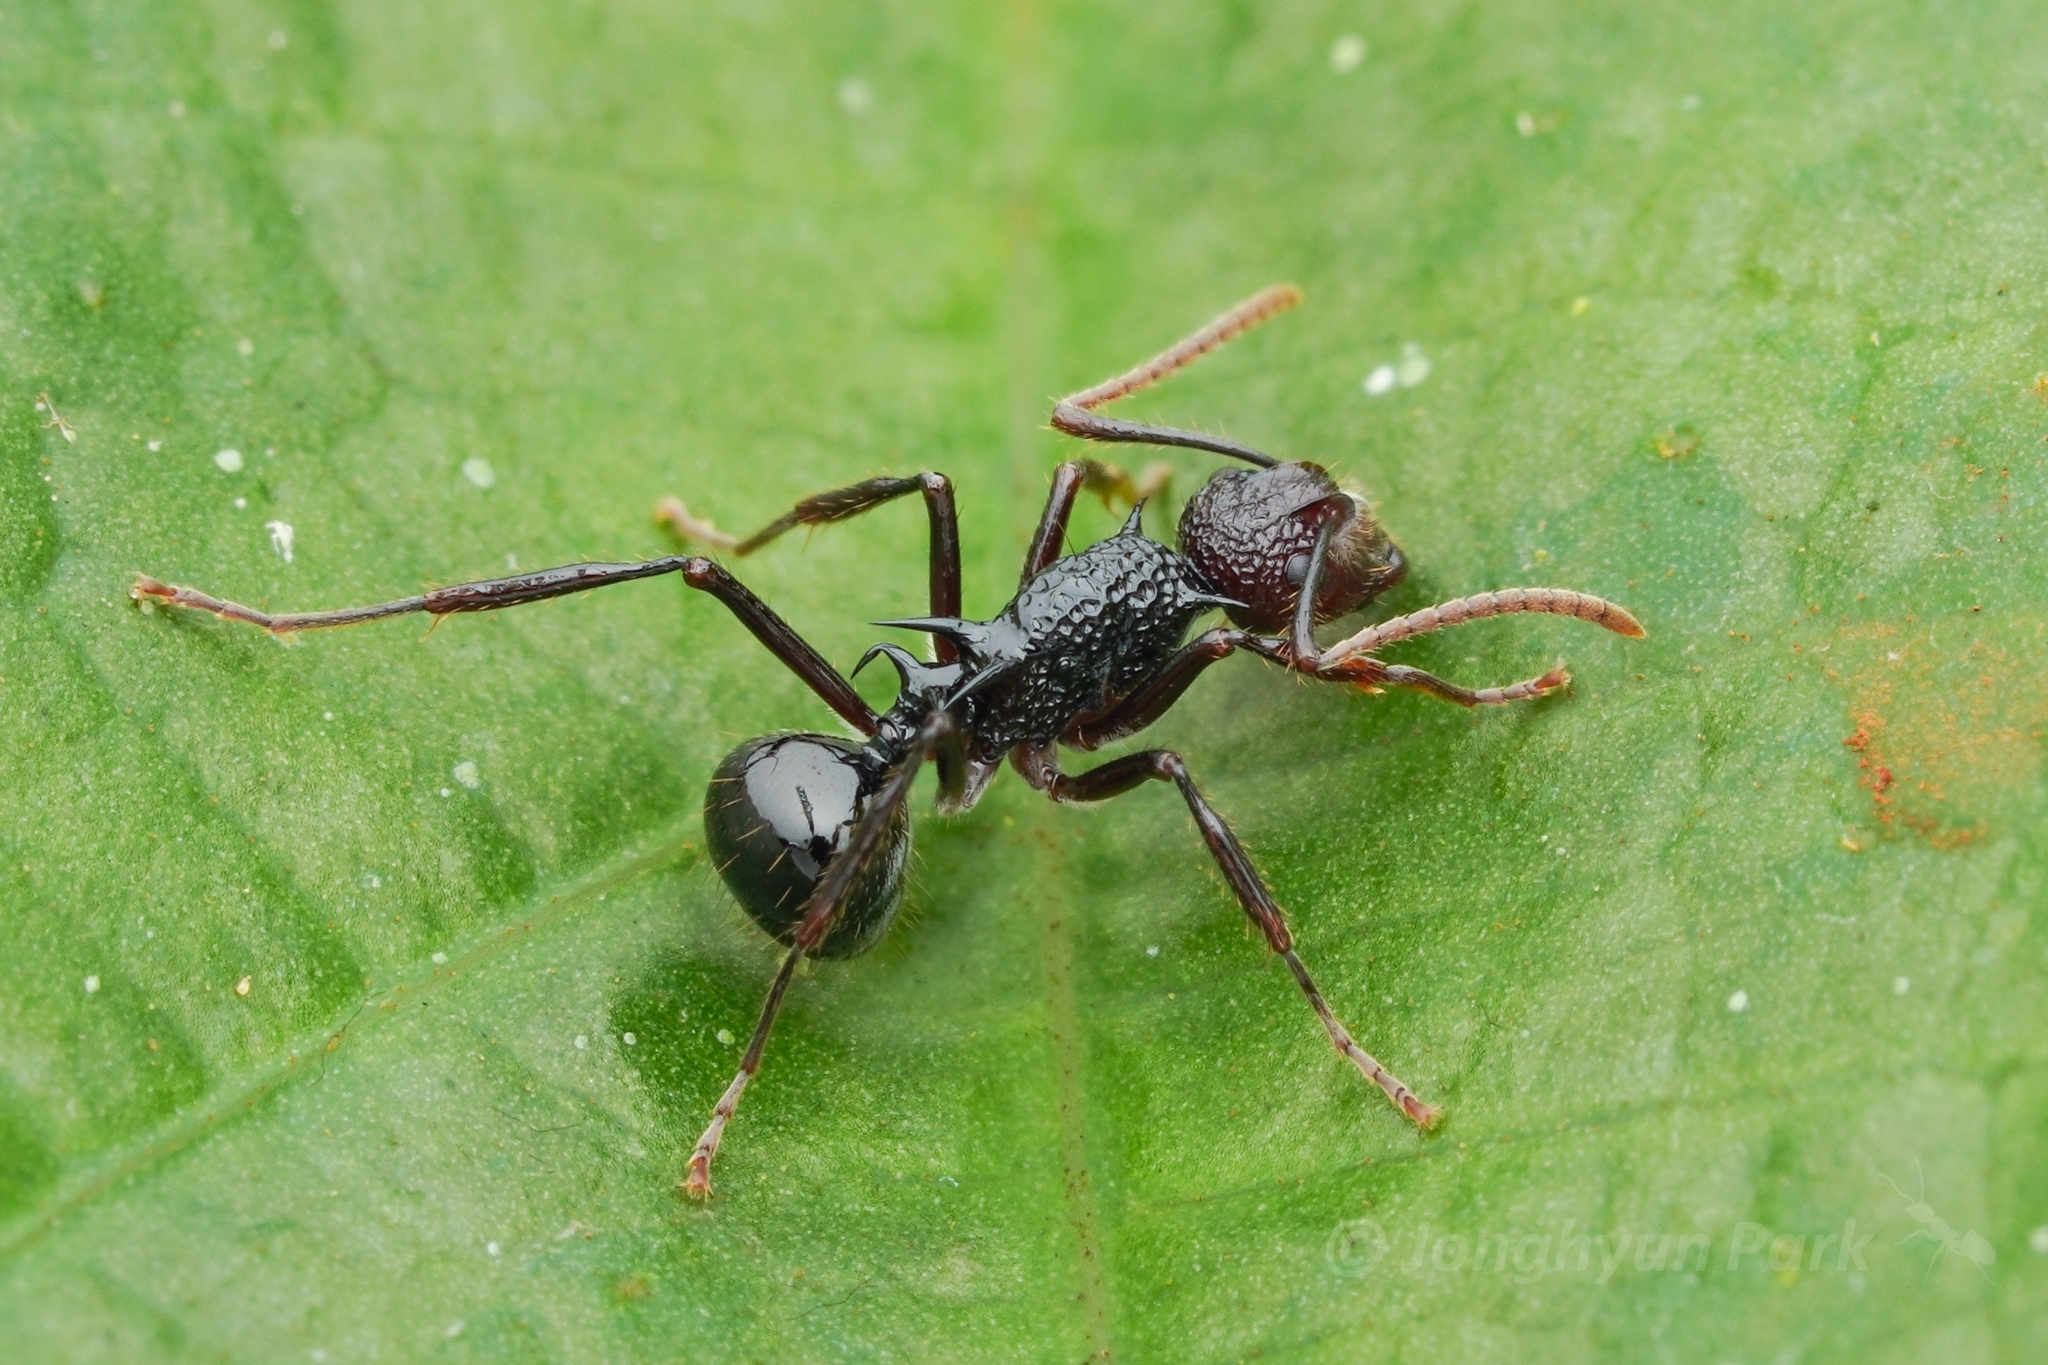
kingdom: Animalia
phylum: Arthropoda
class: Insecta
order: Hymenoptera
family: Formicidae
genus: Polyrhachis
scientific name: Polyrhachis rufipes
